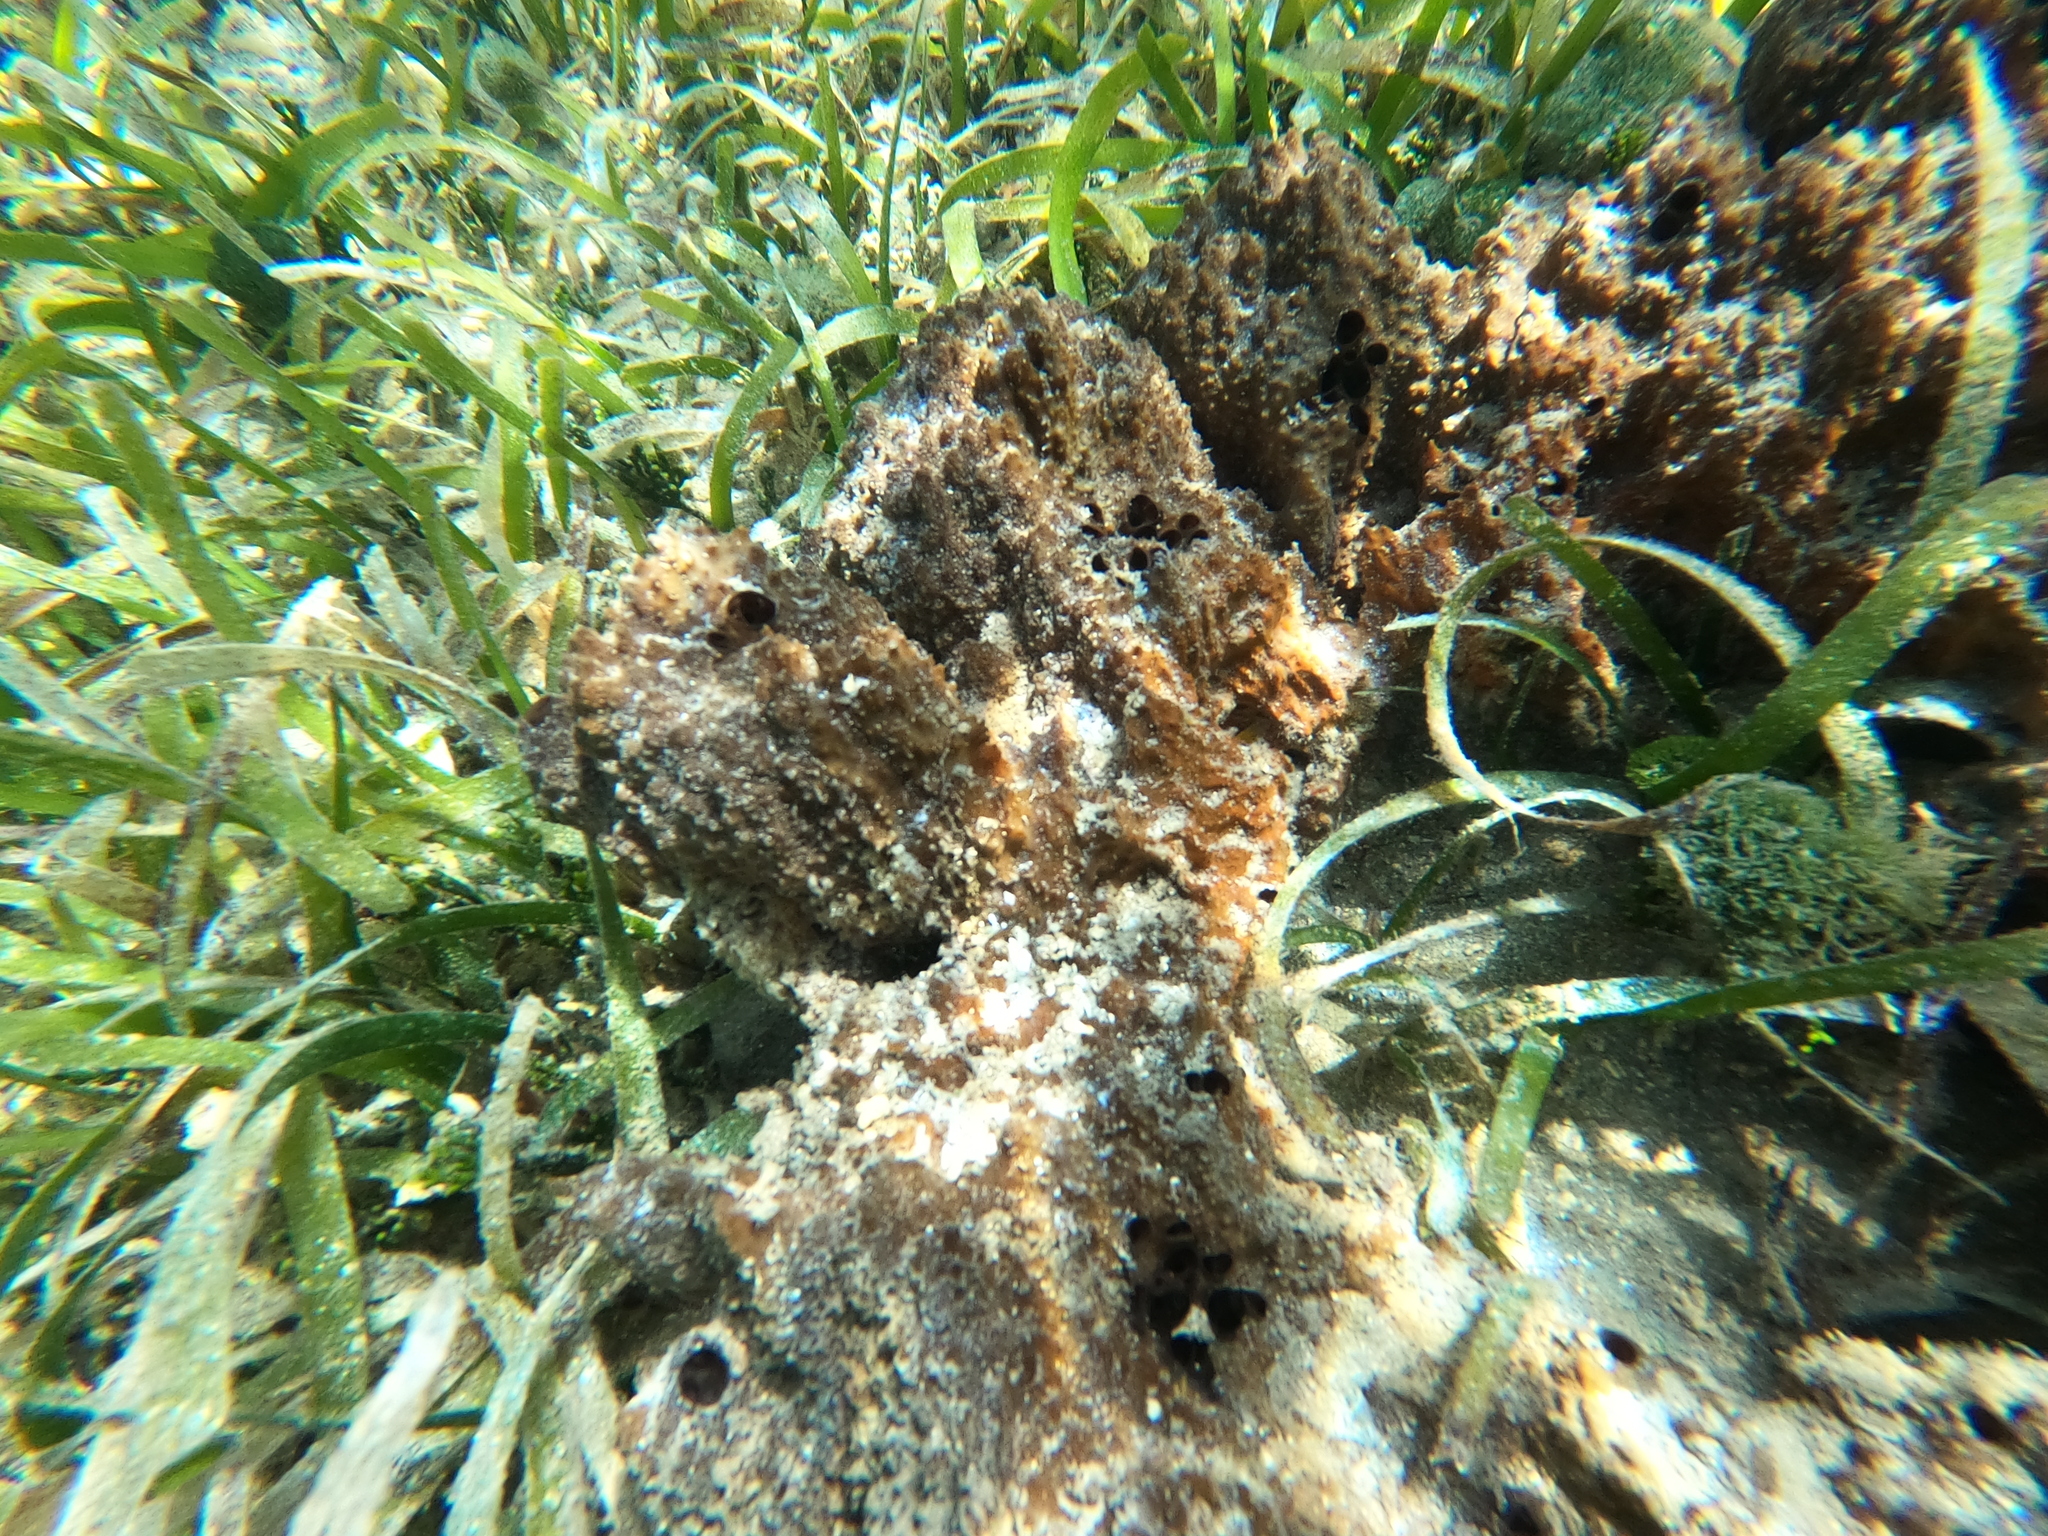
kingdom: Animalia
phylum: Porifera
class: Demospongiae
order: Dictyoceratida
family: Irciniidae
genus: Ircinia
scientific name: Ircinia felix
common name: Stinker sponge
